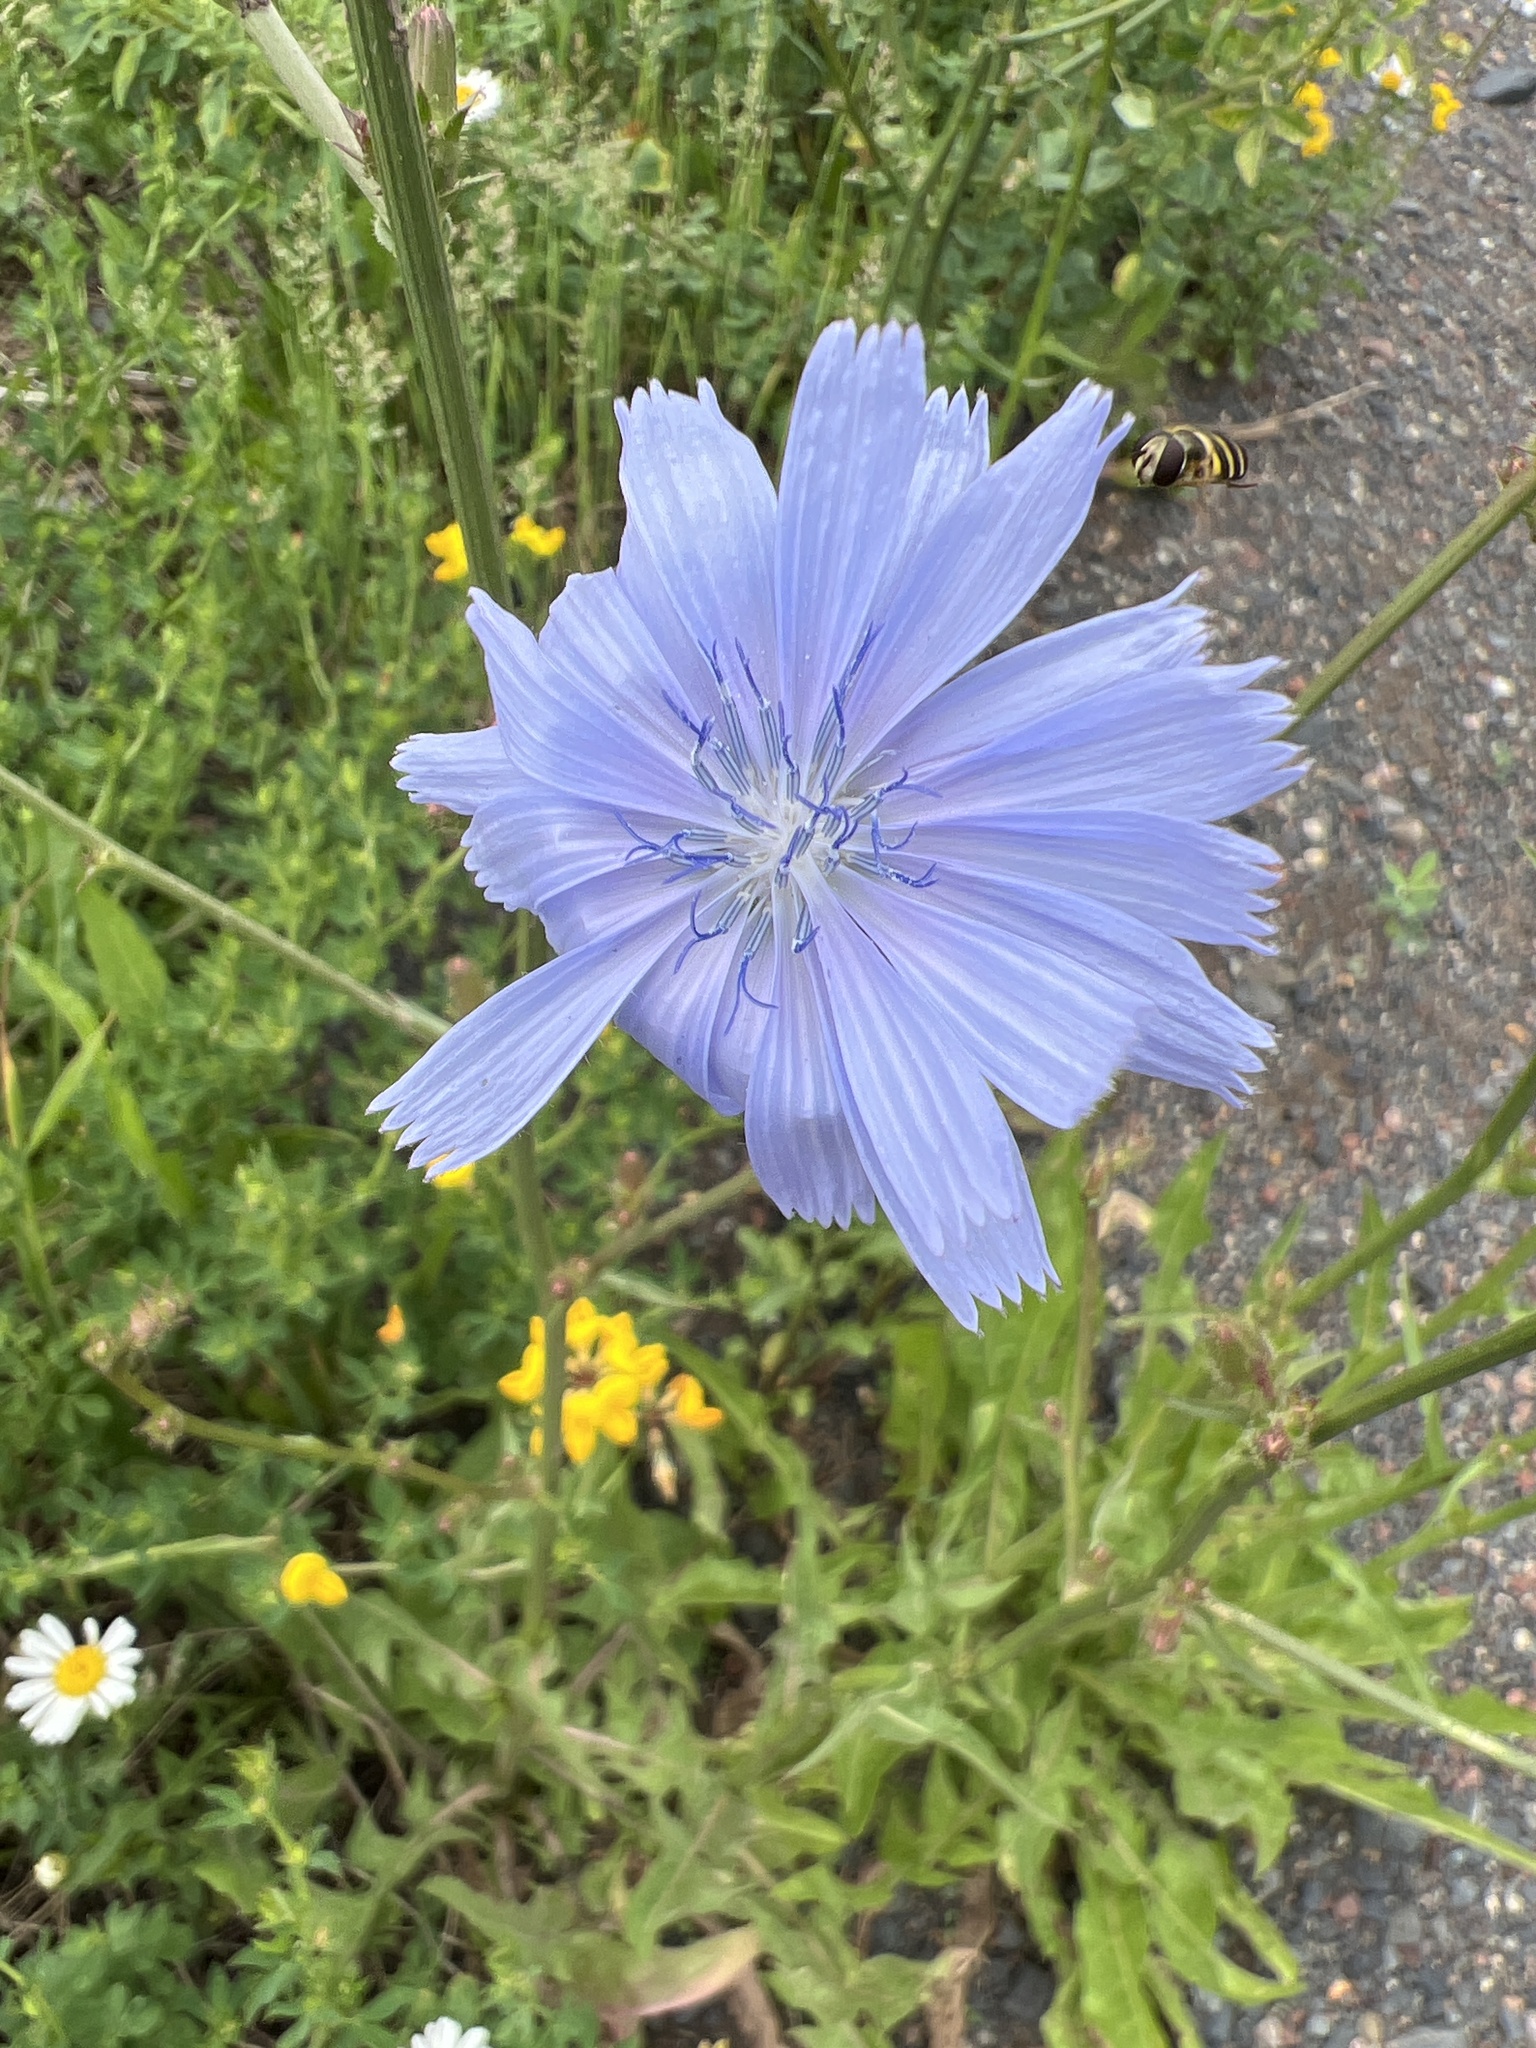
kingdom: Plantae
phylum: Tracheophyta
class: Magnoliopsida
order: Asterales
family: Asteraceae
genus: Cichorium
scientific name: Cichorium intybus
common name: Chicory
